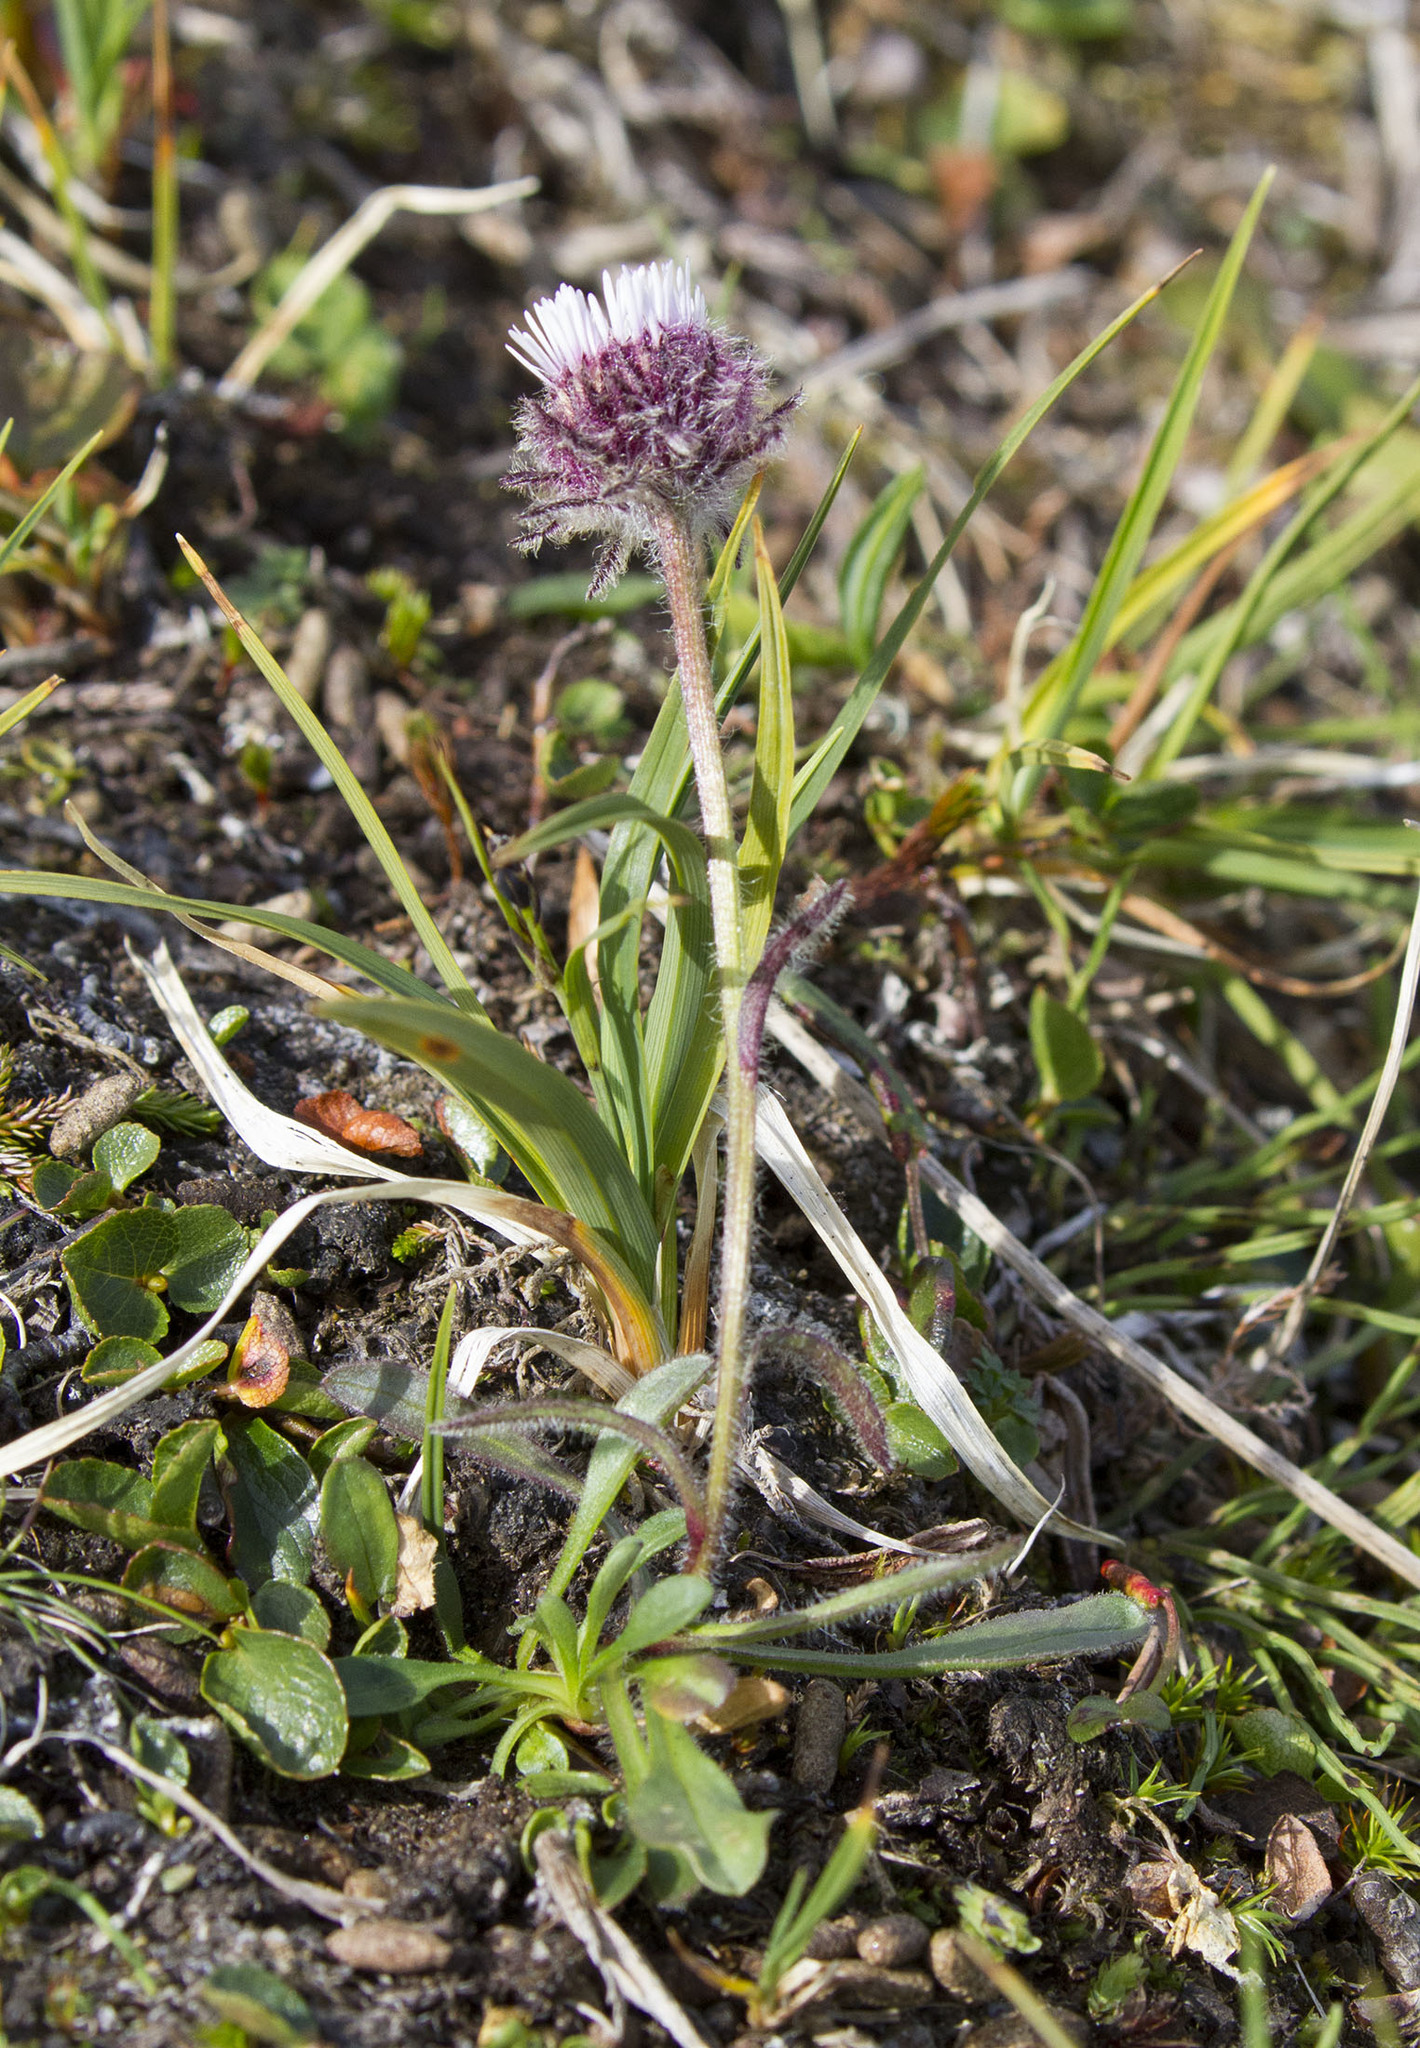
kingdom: Plantae
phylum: Tracheophyta
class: Magnoliopsida
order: Asterales
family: Asteraceae
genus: Erigeron
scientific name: Erigeron humilis
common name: Arctic-alpine fleabane
